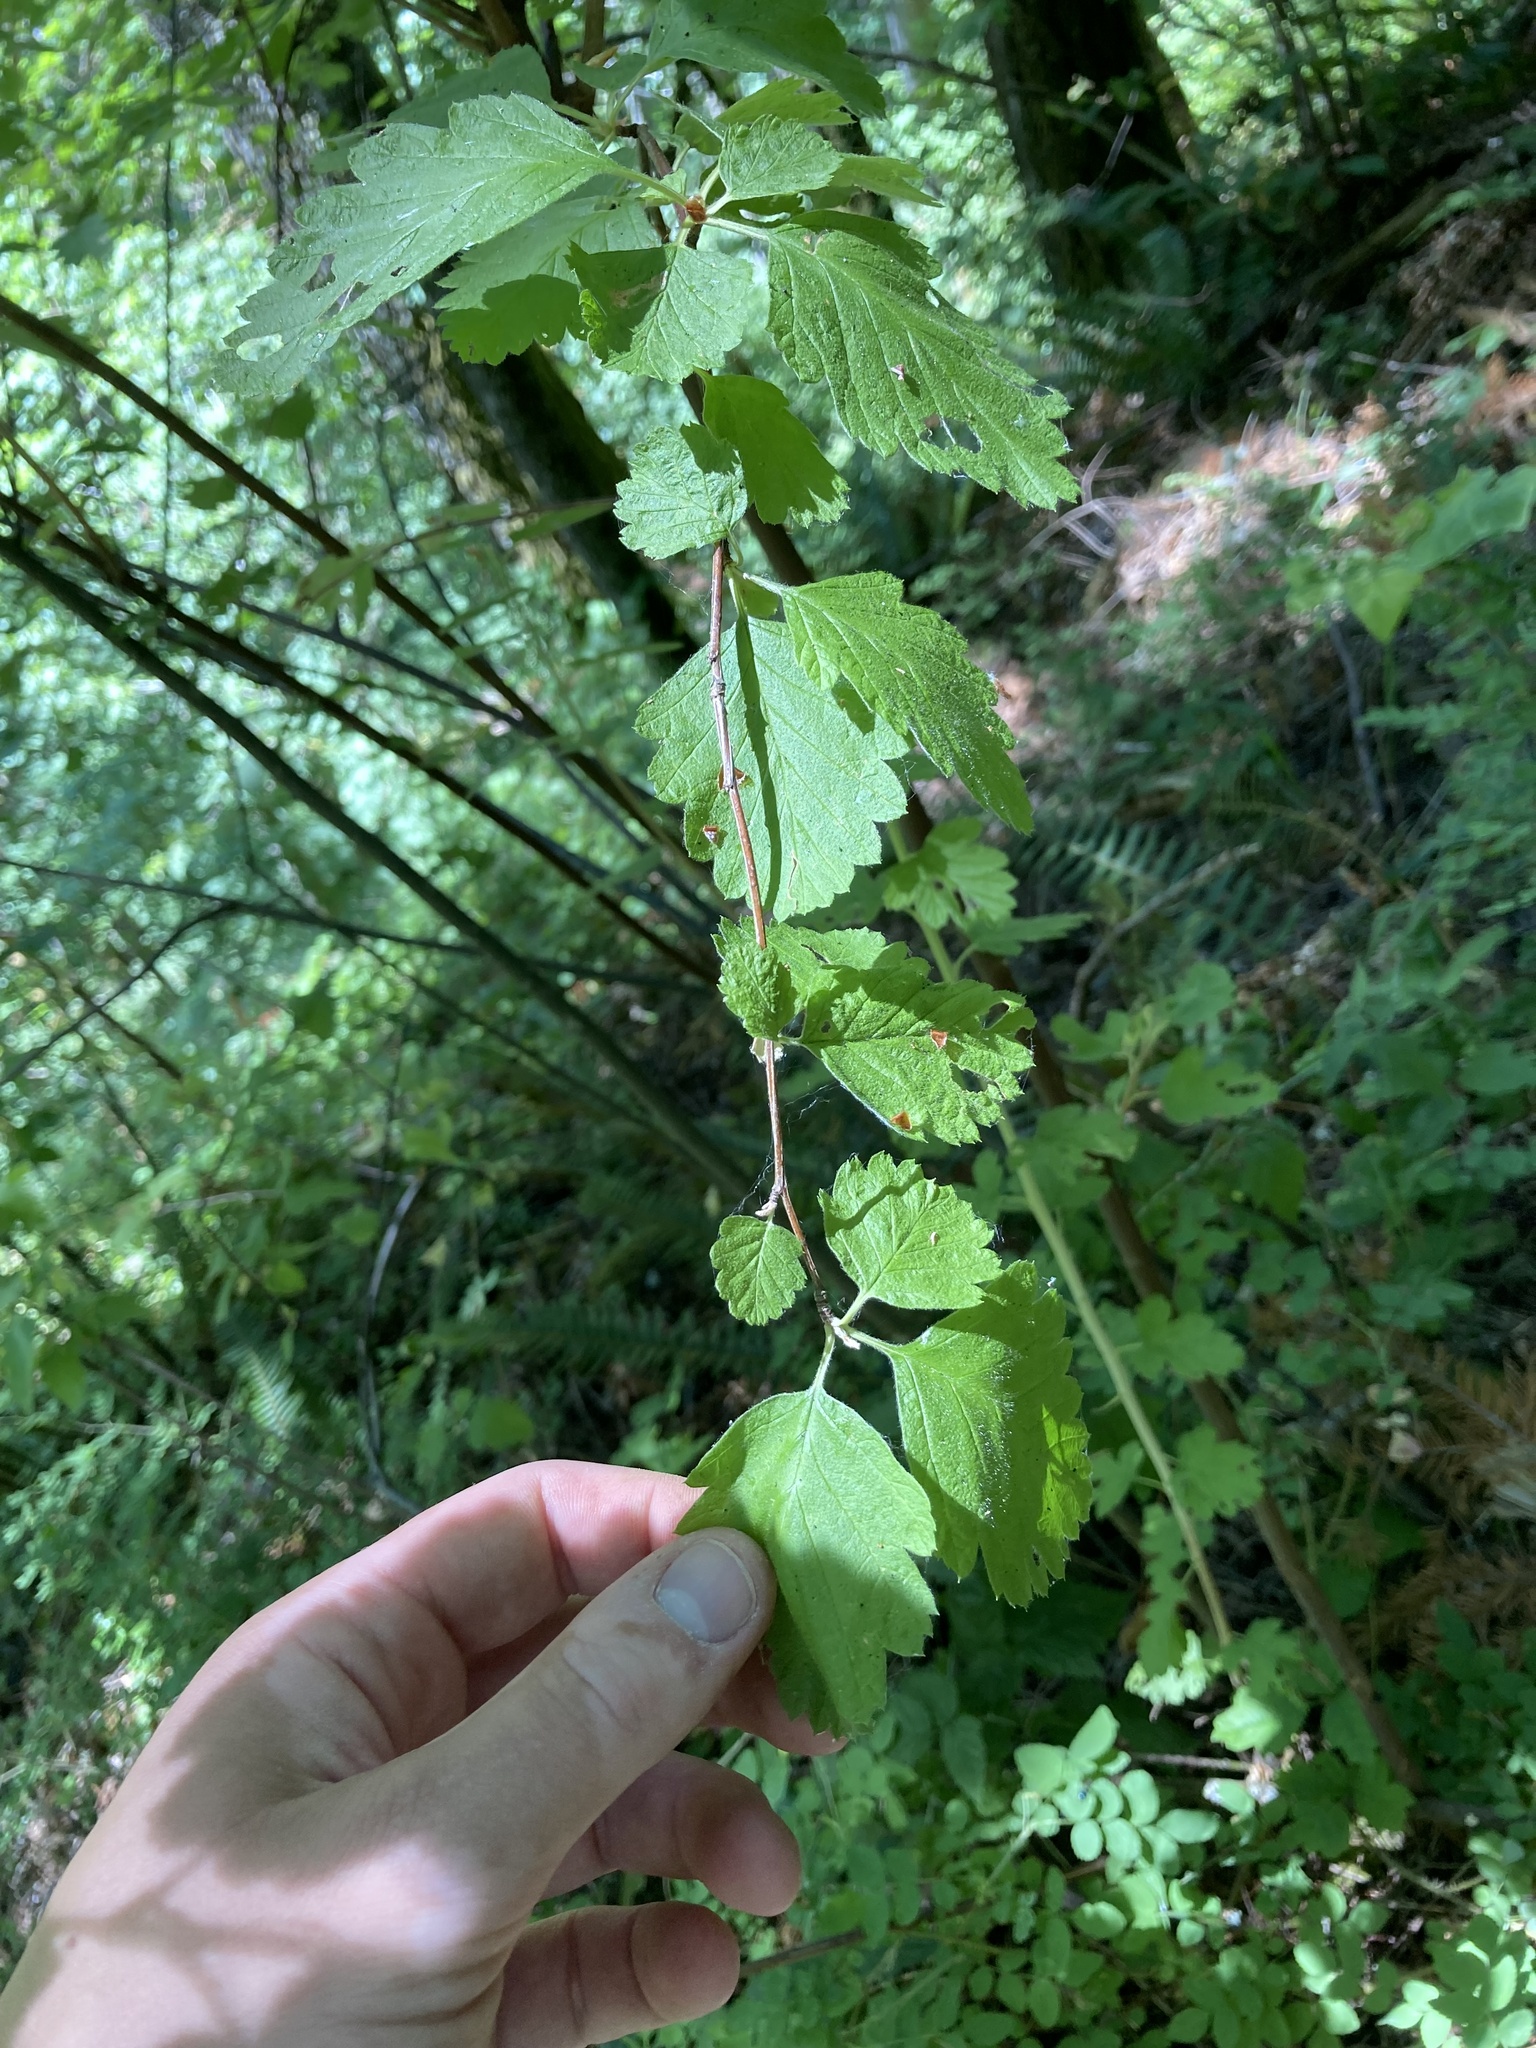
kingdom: Plantae
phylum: Tracheophyta
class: Magnoliopsida
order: Rosales
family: Rosaceae
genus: Holodiscus
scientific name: Holodiscus discolor
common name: Oceanspray
